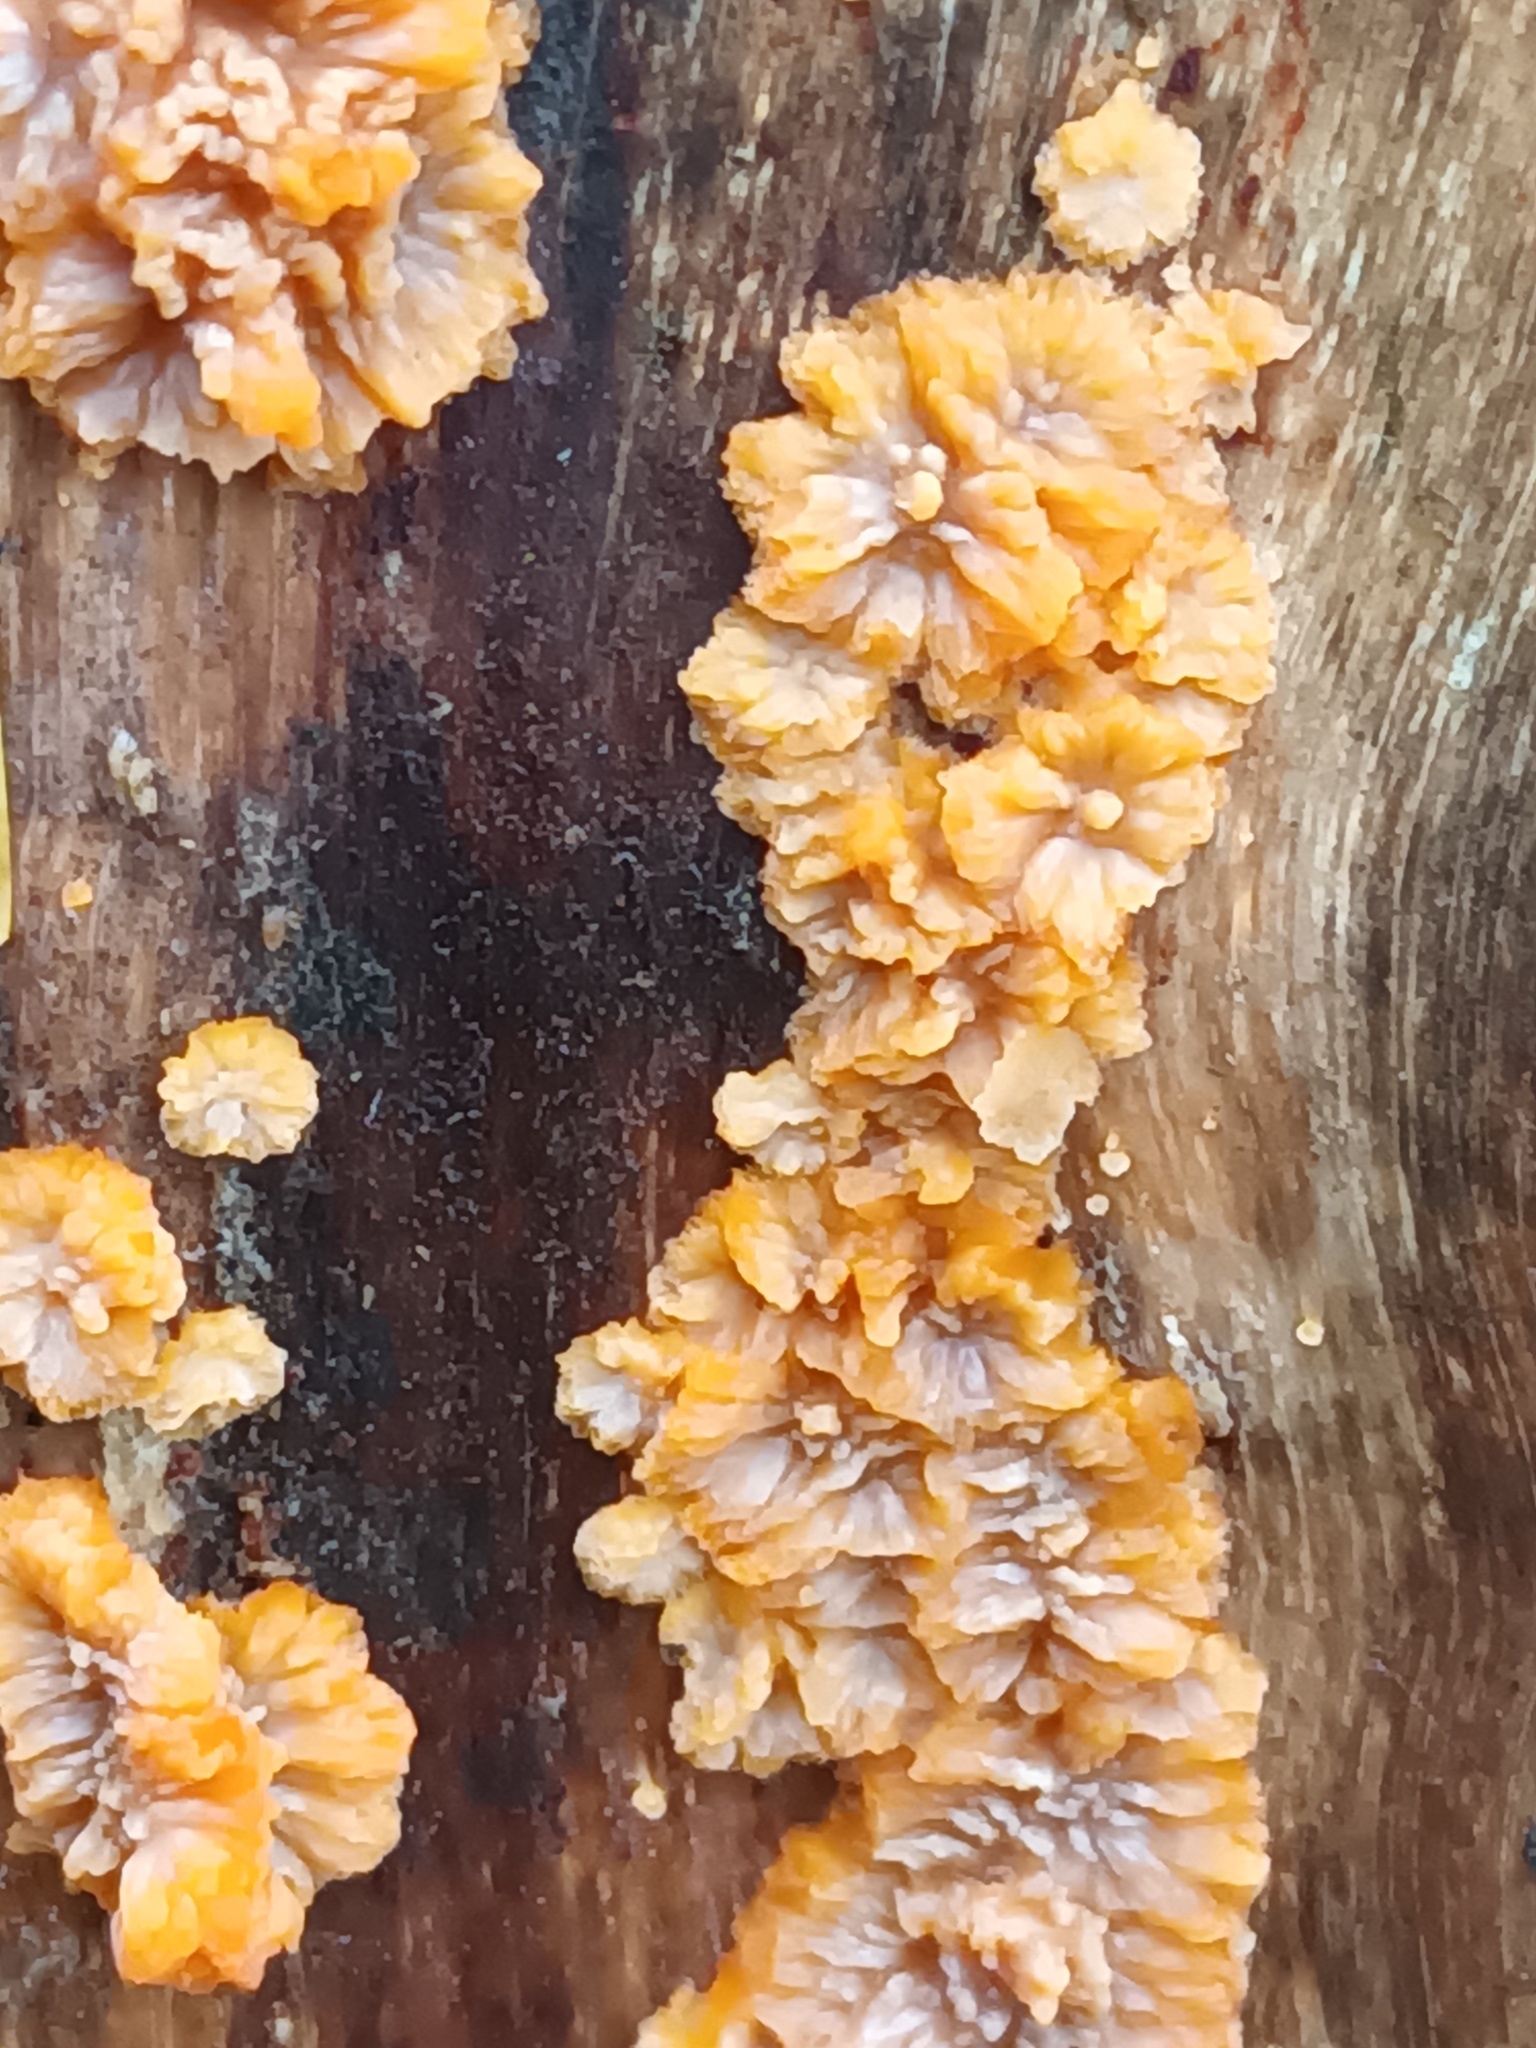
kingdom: Fungi
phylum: Basidiomycota
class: Agaricomycetes
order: Polyporales
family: Meruliaceae
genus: Phlebia
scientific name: Phlebia radiata
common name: Wrinkled crust
